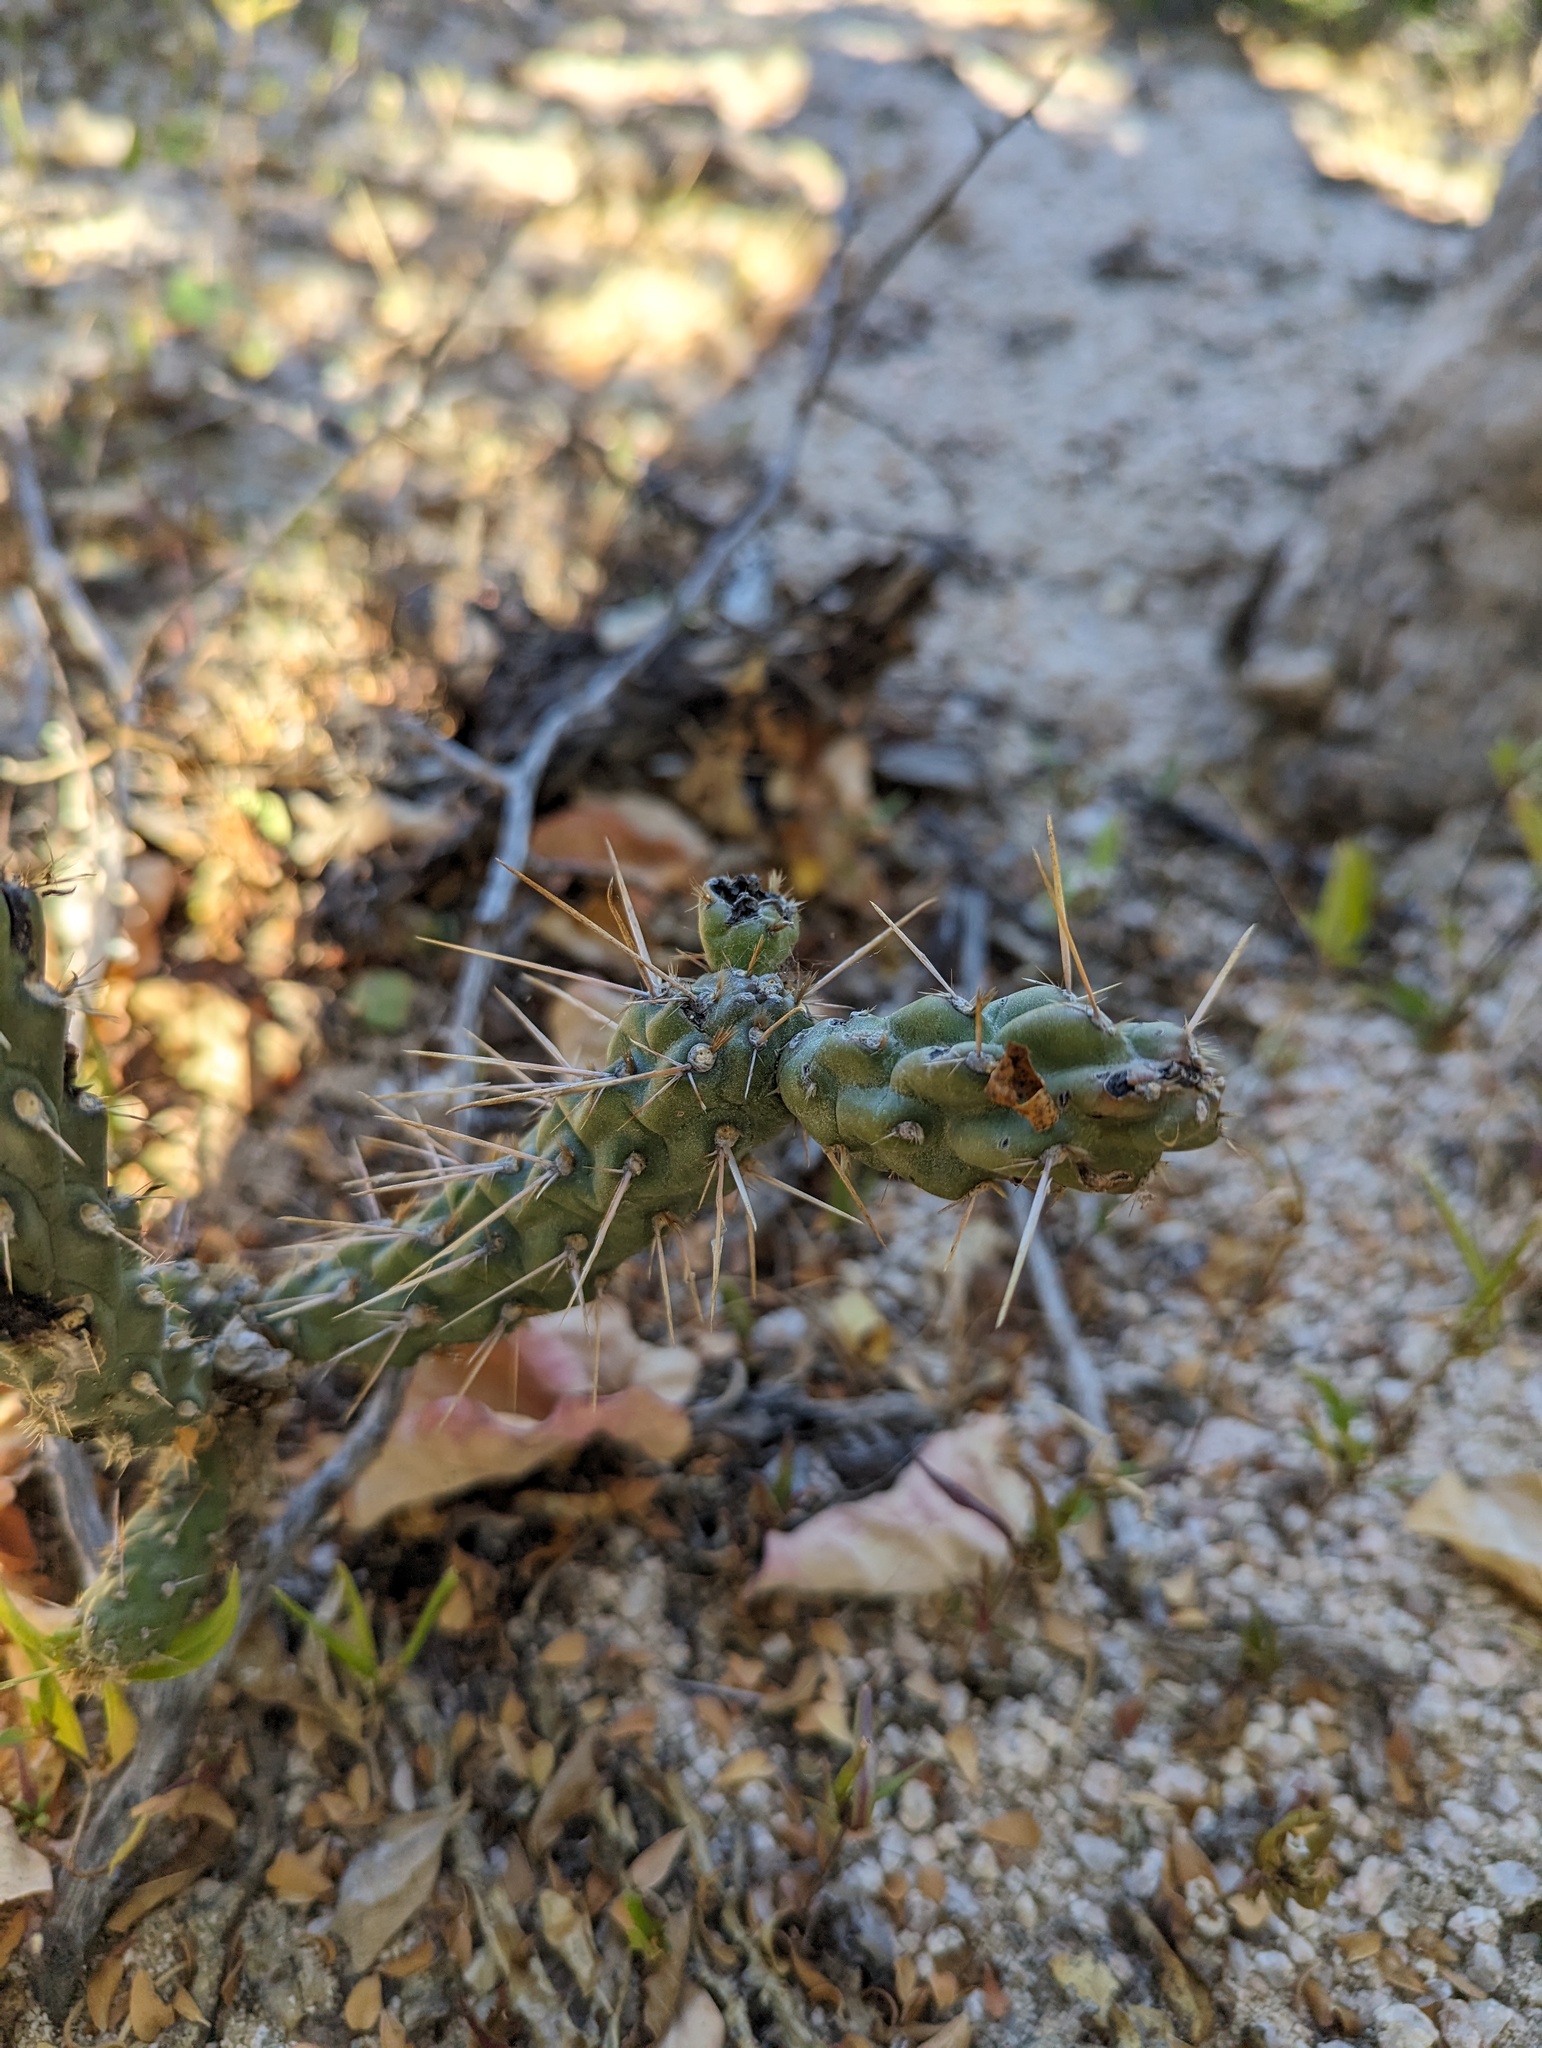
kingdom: Plantae
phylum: Tracheophyta
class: Magnoliopsida
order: Caryophyllales
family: Cactaceae
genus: Cylindropuntia
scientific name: Cylindropuntia cholla
